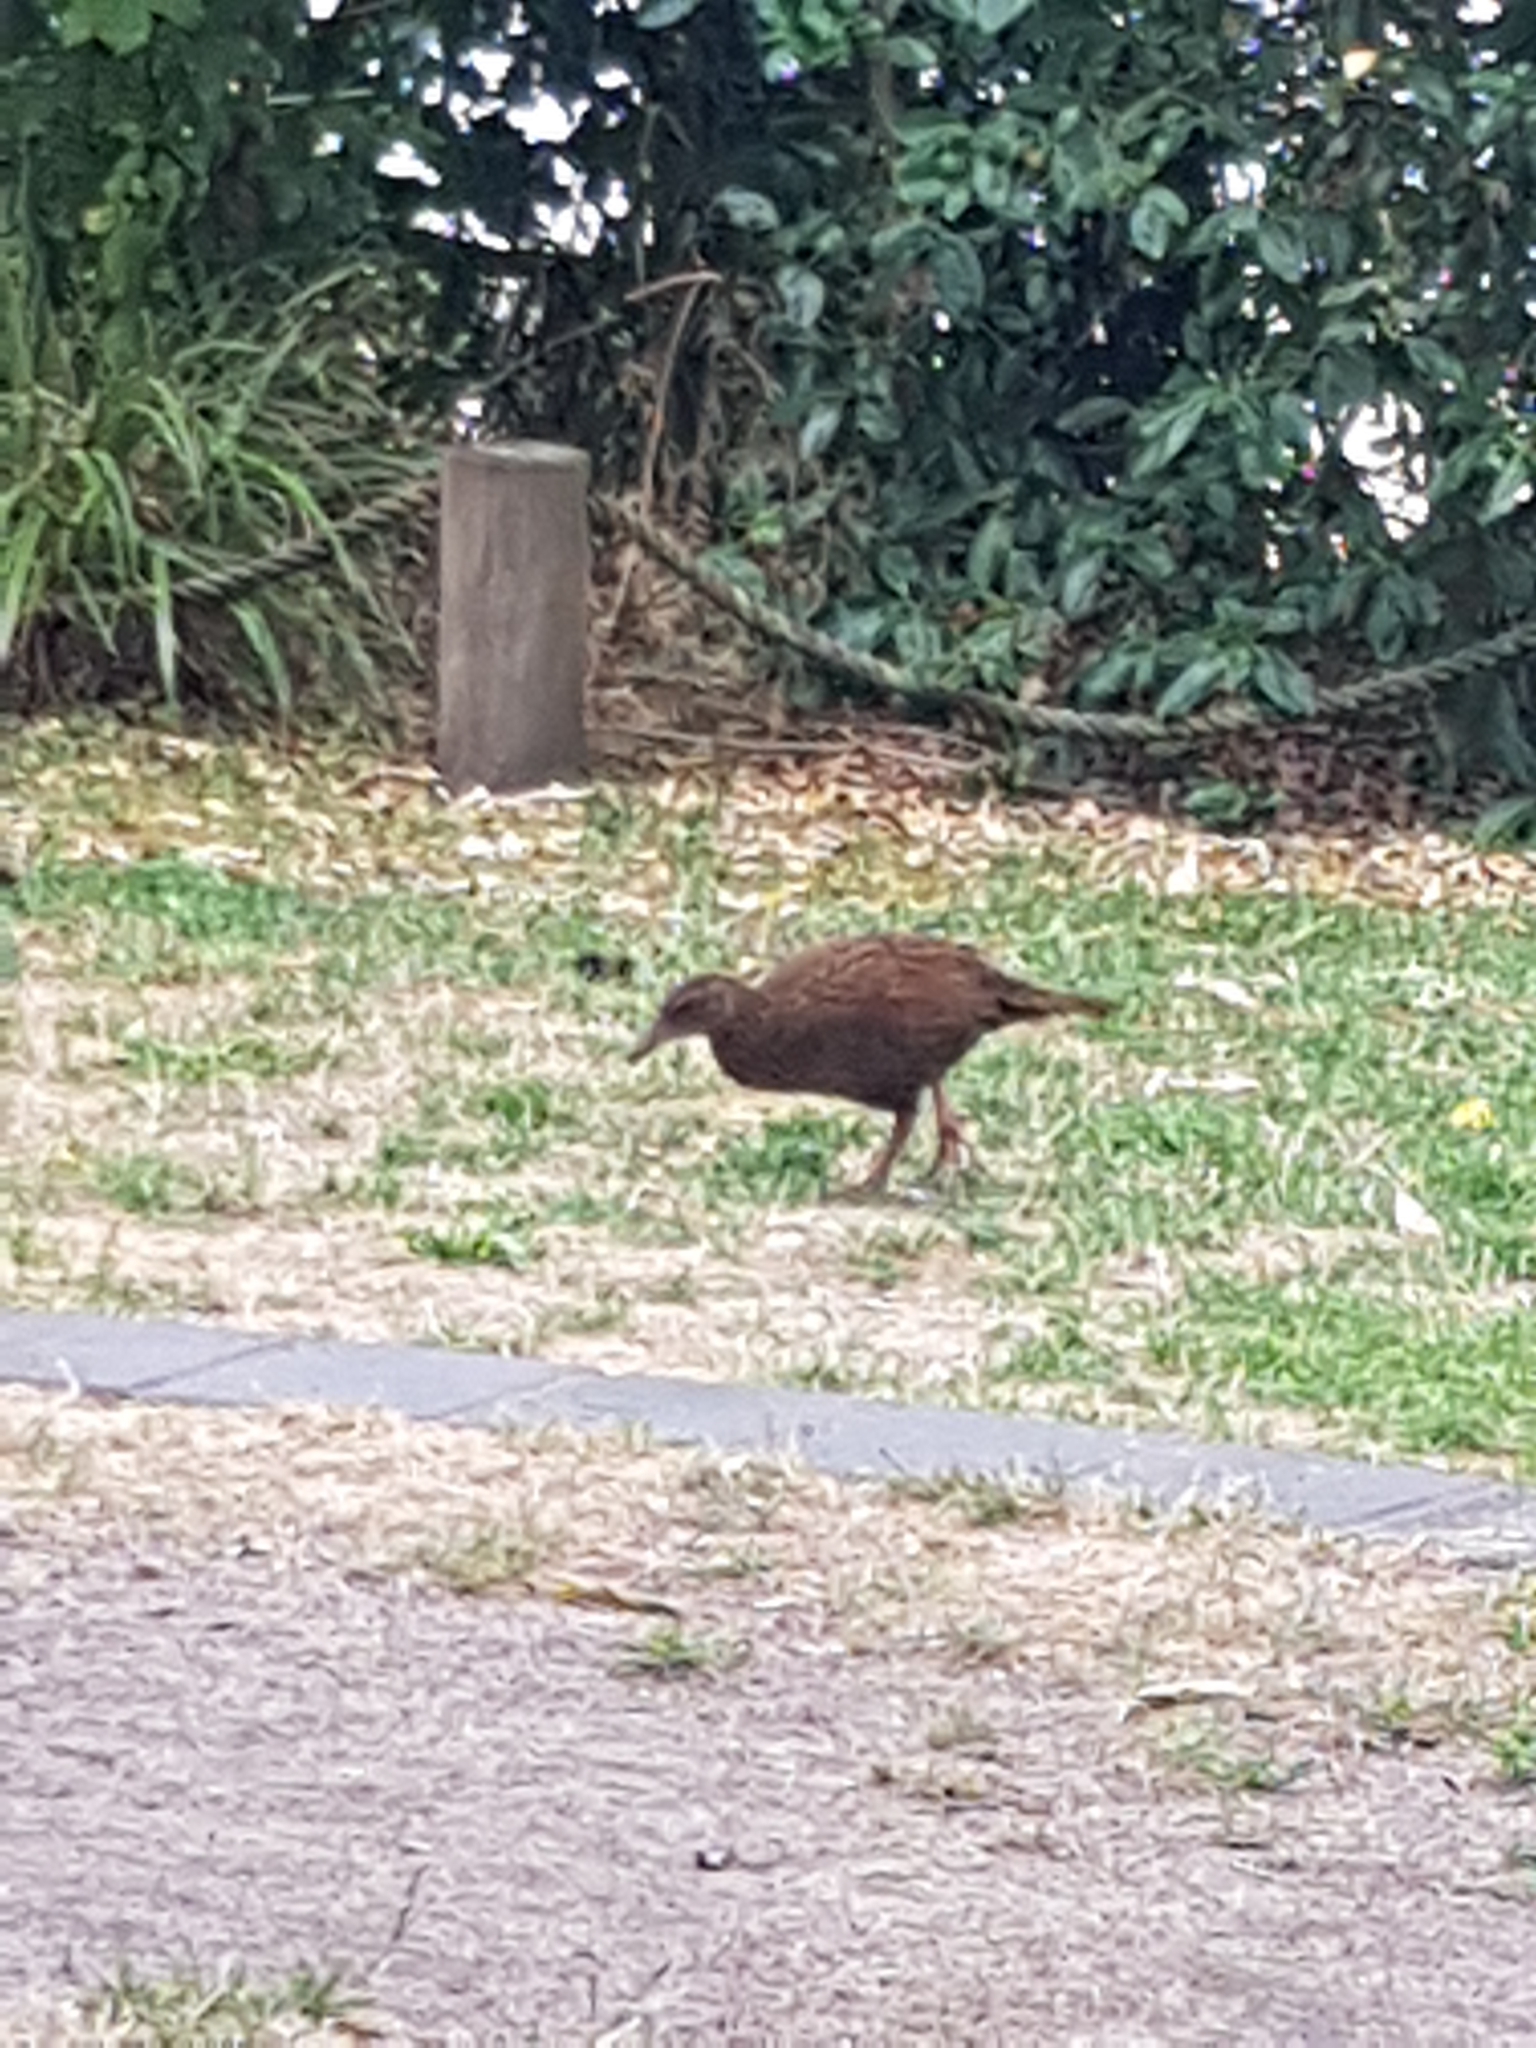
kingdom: Animalia
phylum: Chordata
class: Aves
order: Gruiformes
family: Rallidae
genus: Gallirallus
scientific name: Gallirallus australis
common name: Weka
